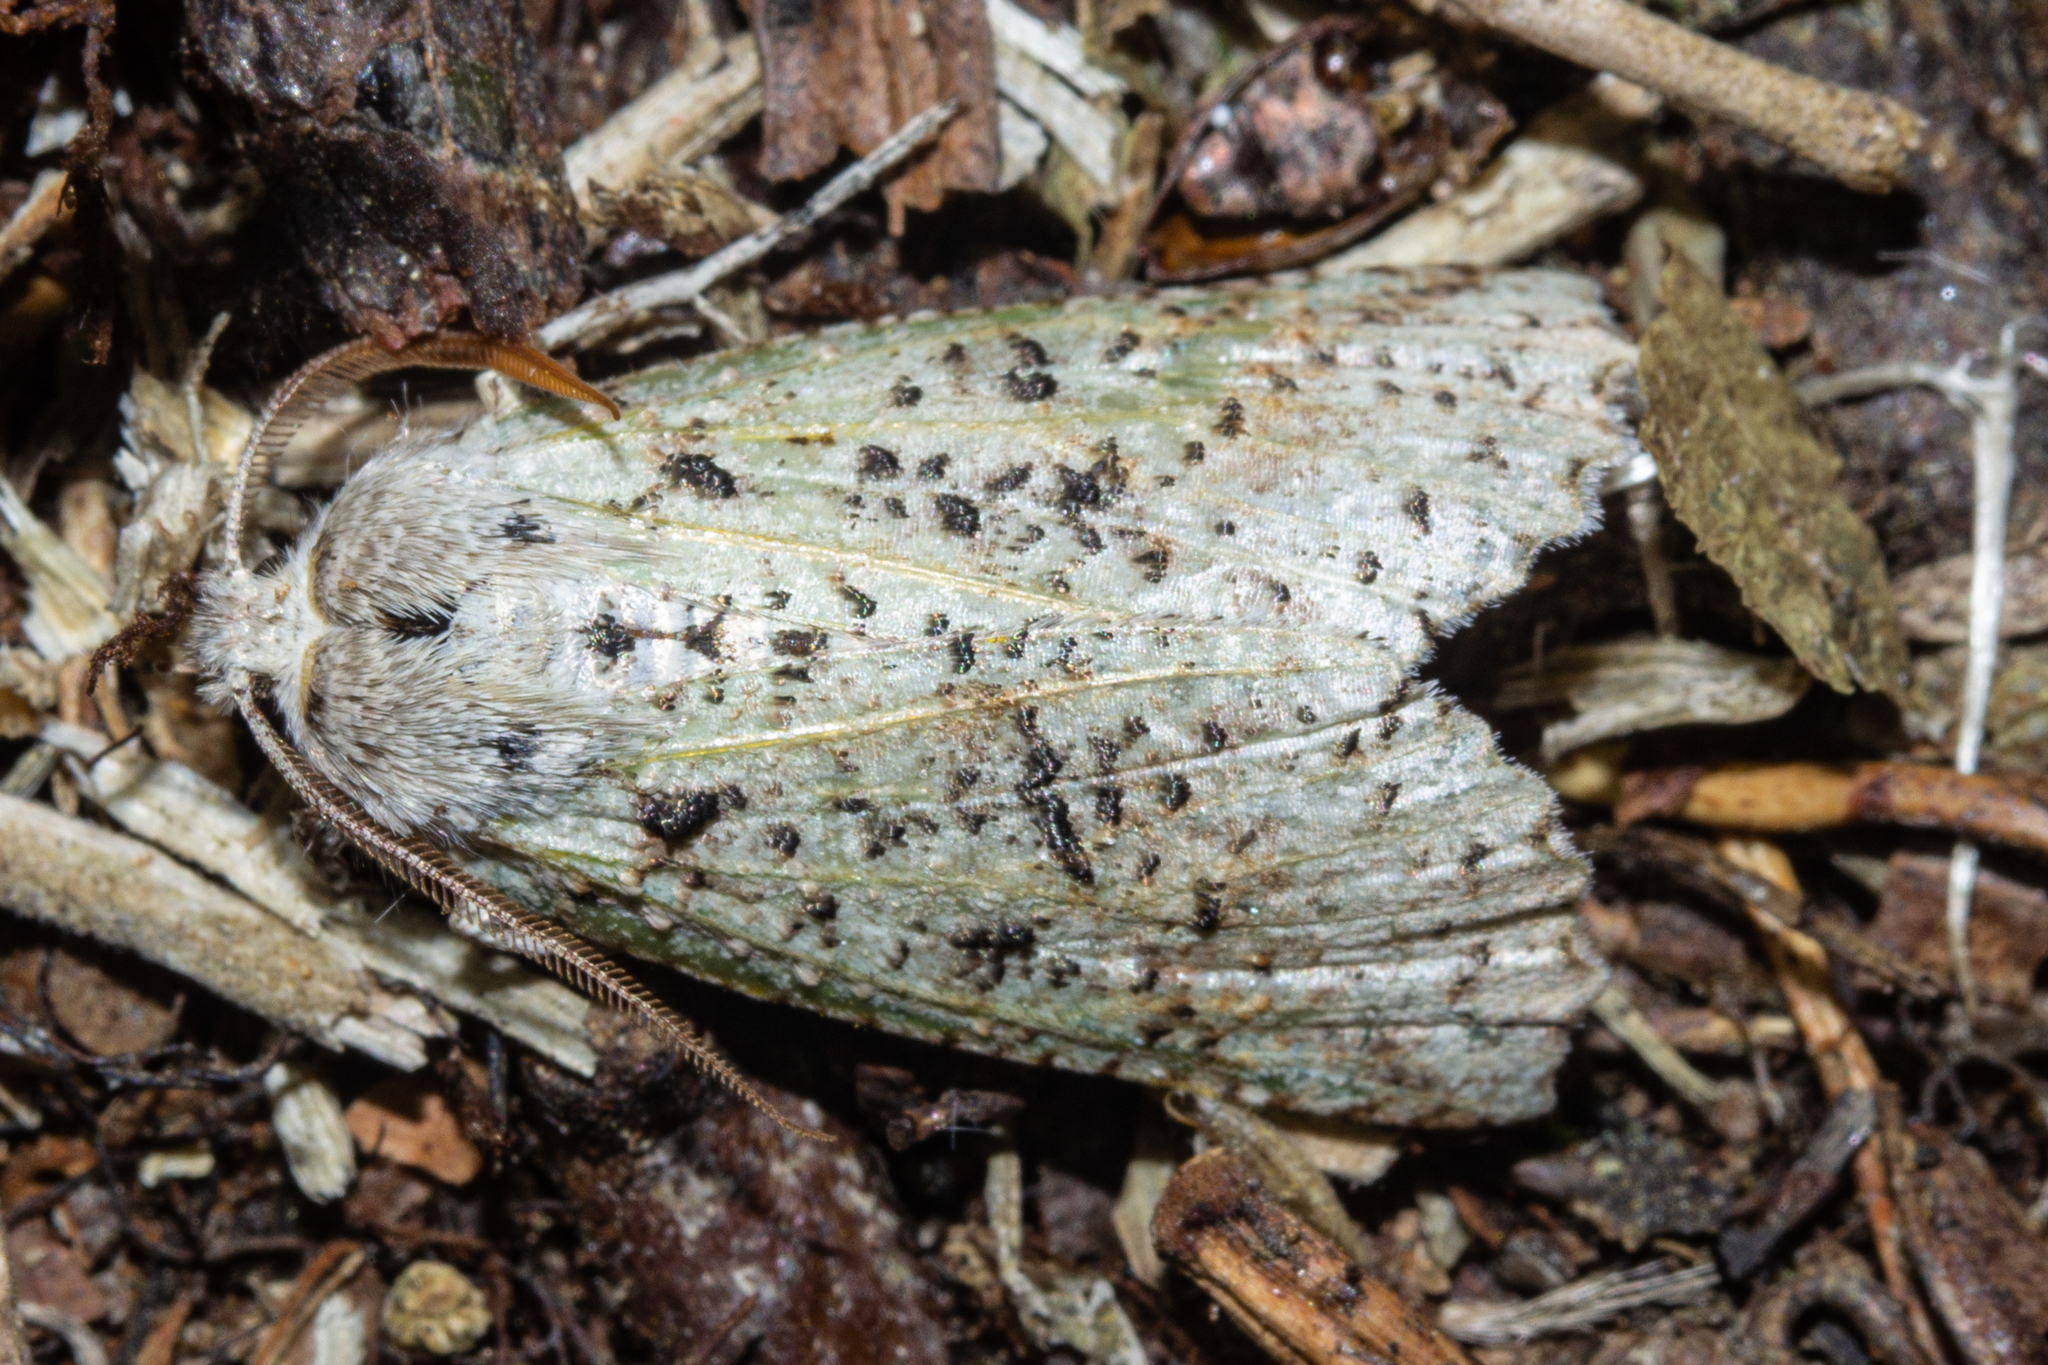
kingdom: Animalia
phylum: Arthropoda
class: Insecta
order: Lepidoptera
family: Geometridae
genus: Declana
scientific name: Declana floccosa
